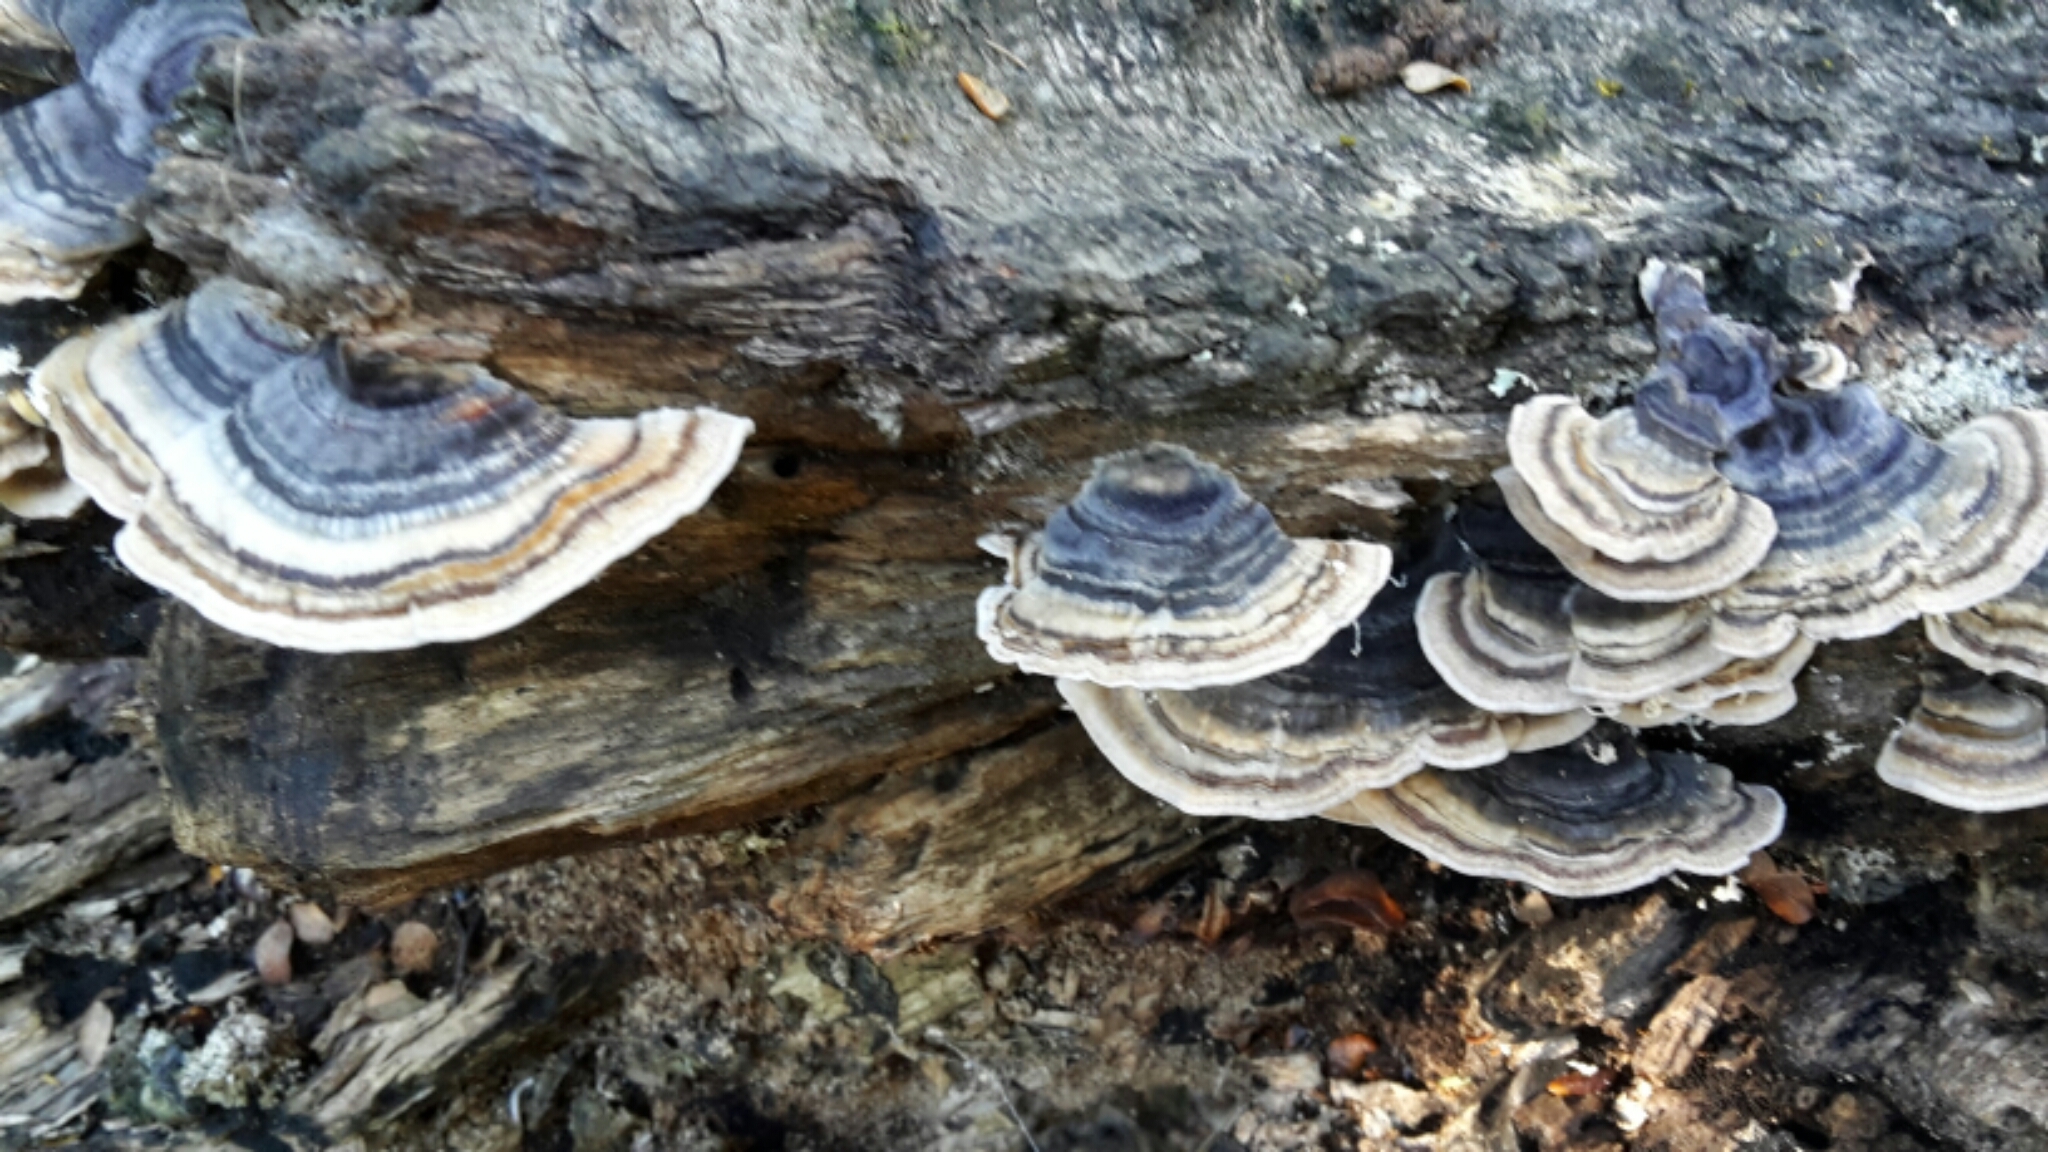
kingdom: Fungi
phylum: Basidiomycota
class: Agaricomycetes
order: Polyporales
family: Polyporaceae
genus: Trametes
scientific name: Trametes versicolor
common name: Turkeytail
